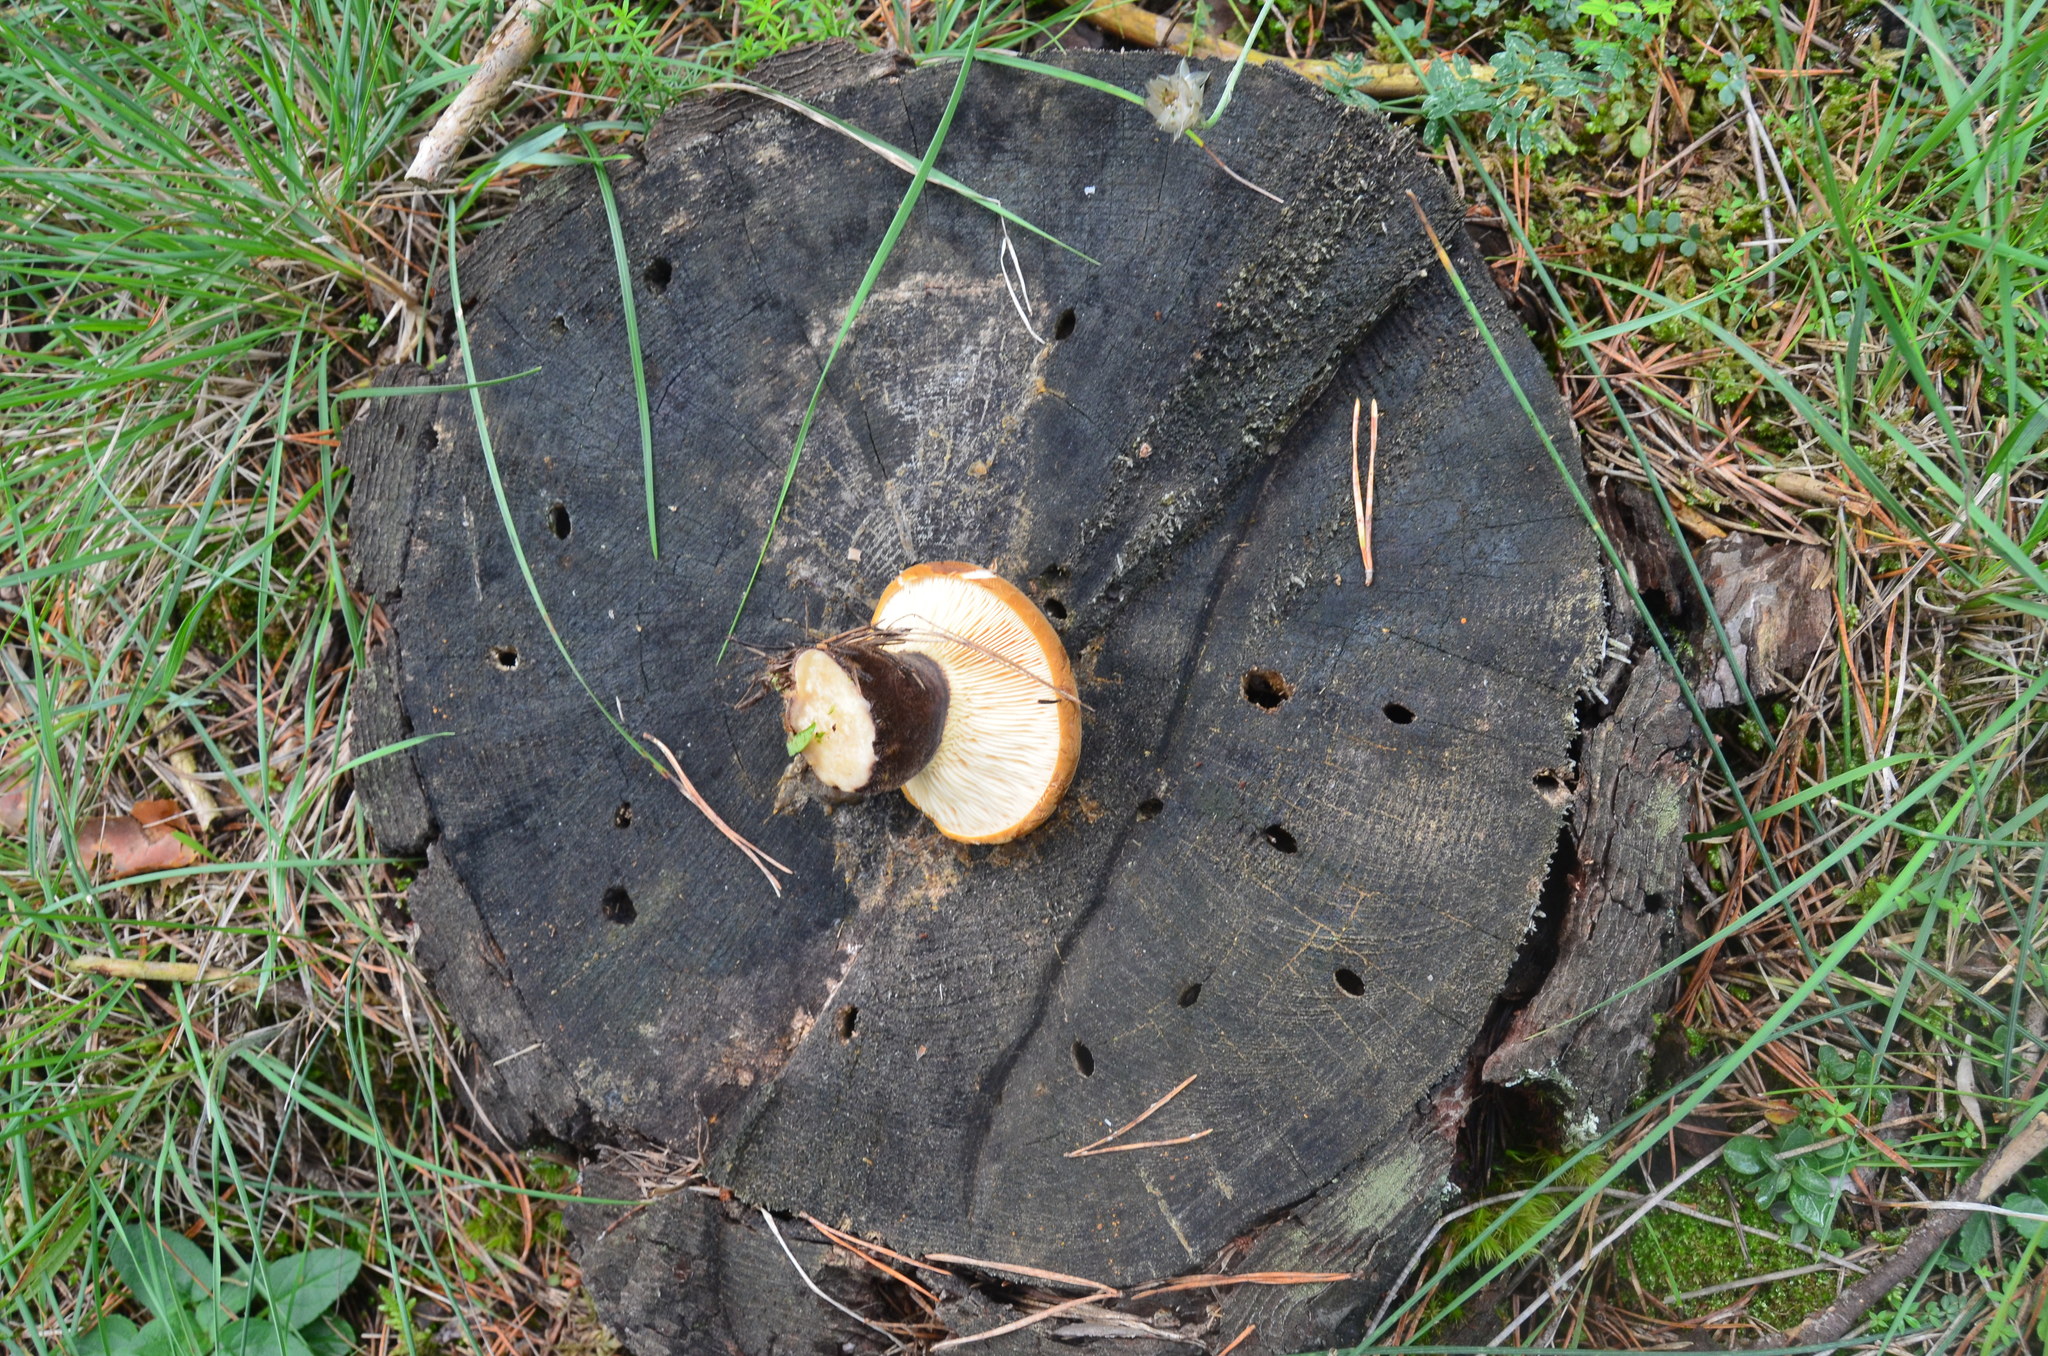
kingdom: Fungi
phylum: Basidiomycota
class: Agaricomycetes
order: Boletales
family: Tapinellaceae
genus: Tapinella
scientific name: Tapinella atrotomentosa
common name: Velvet rollrim
